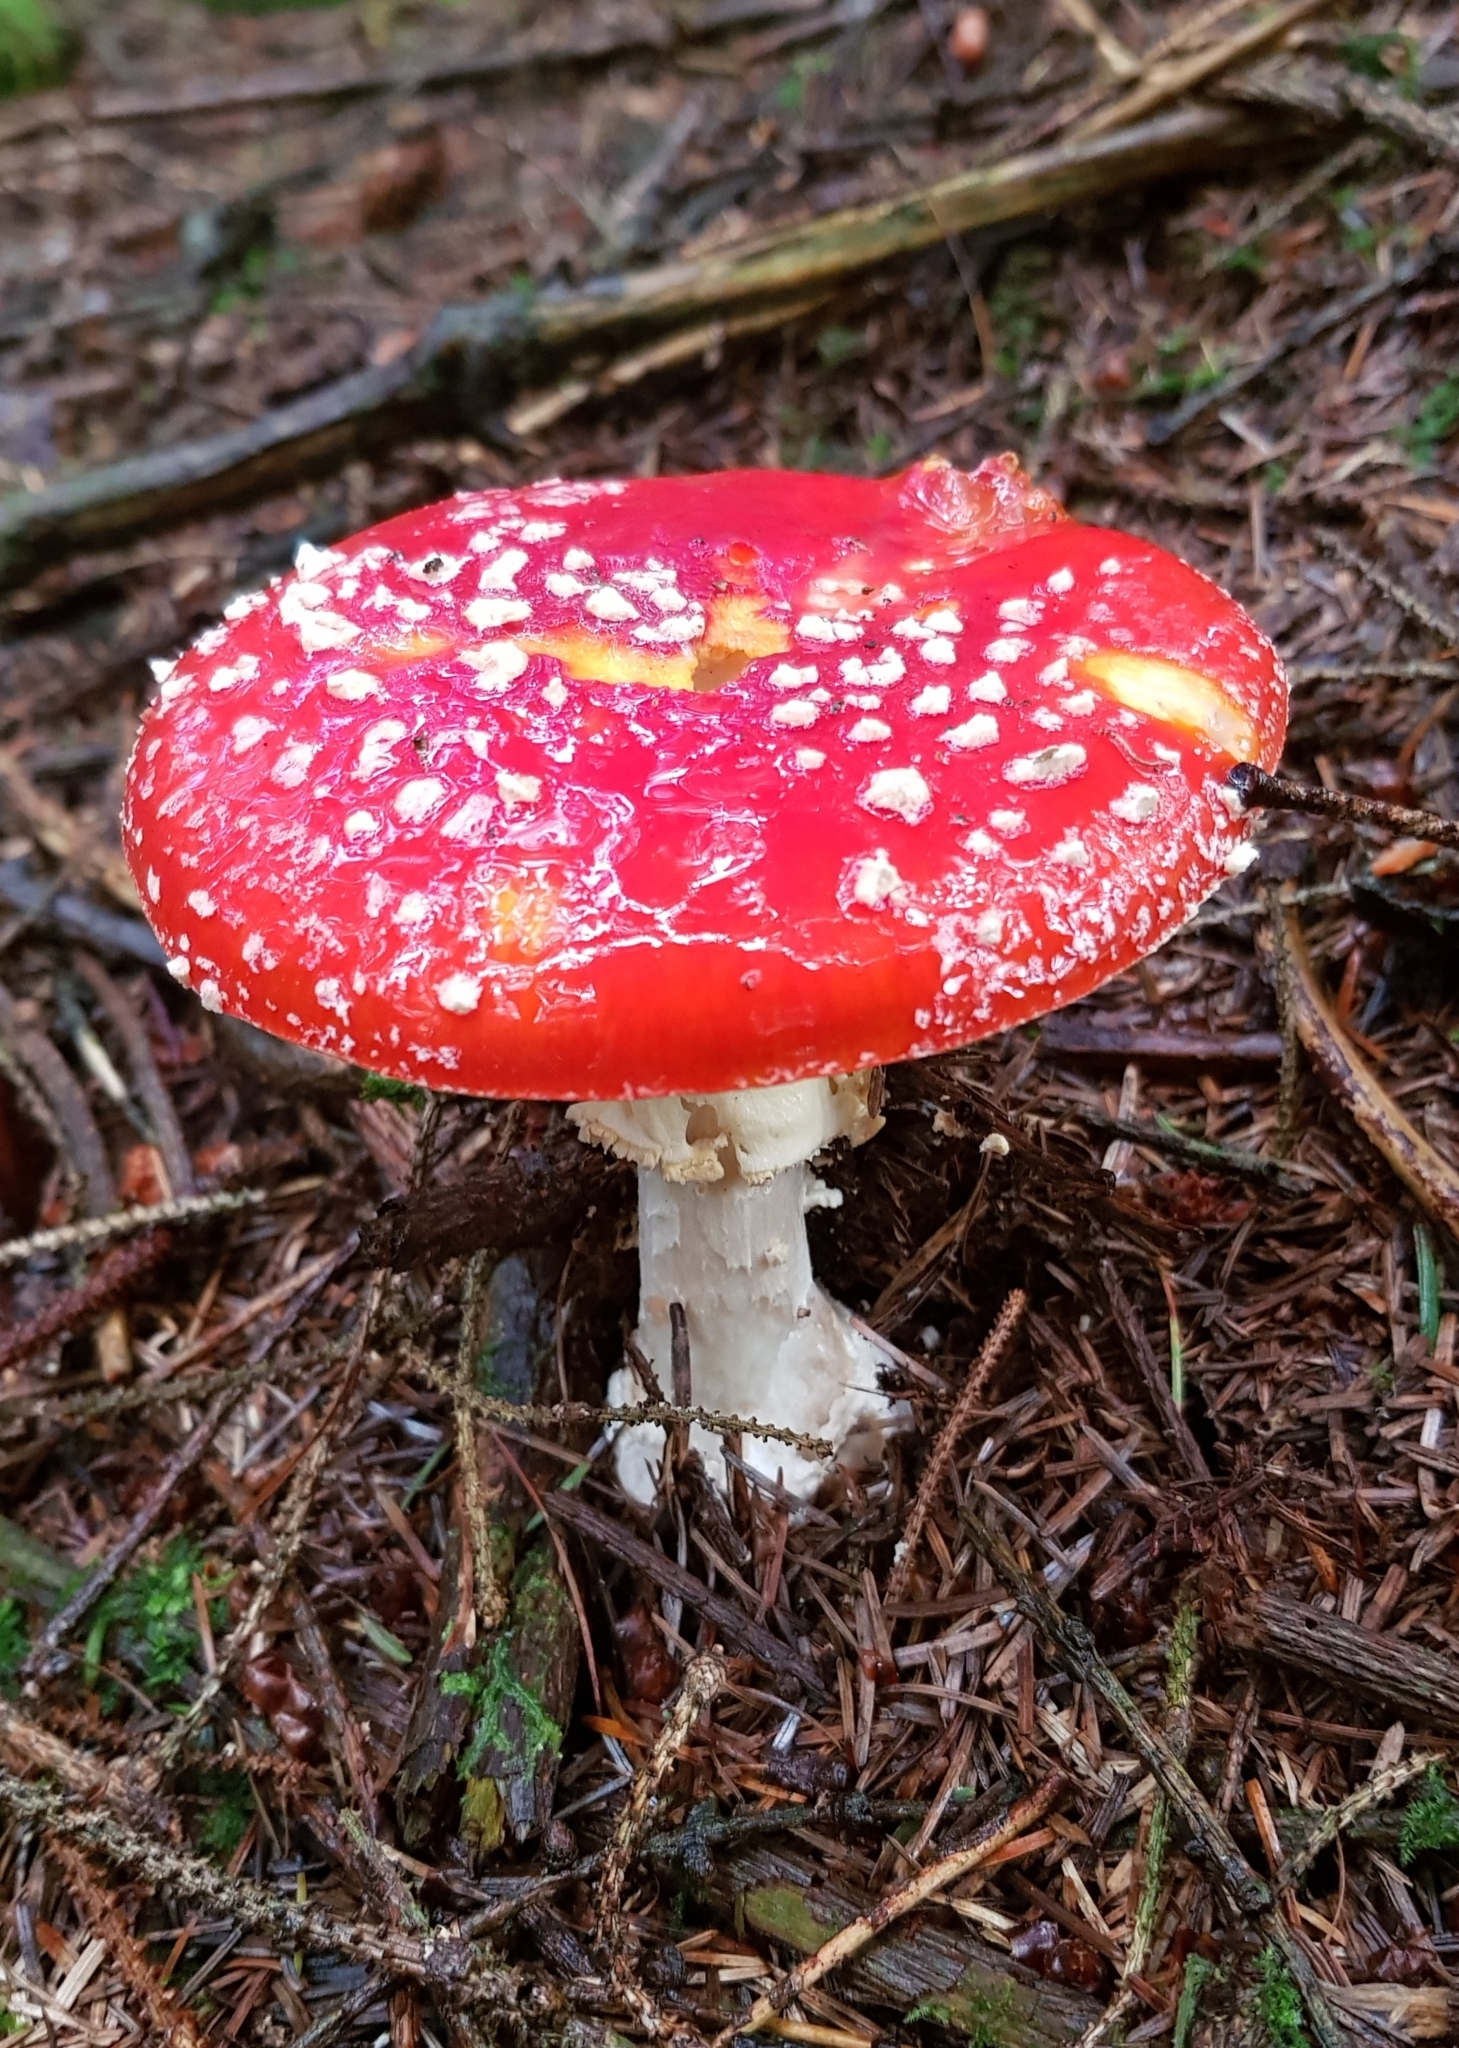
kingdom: Fungi
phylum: Basidiomycota
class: Agaricomycetes
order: Agaricales
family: Amanitaceae
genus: Amanita
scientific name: Amanita muscaria
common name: Fly agaric
